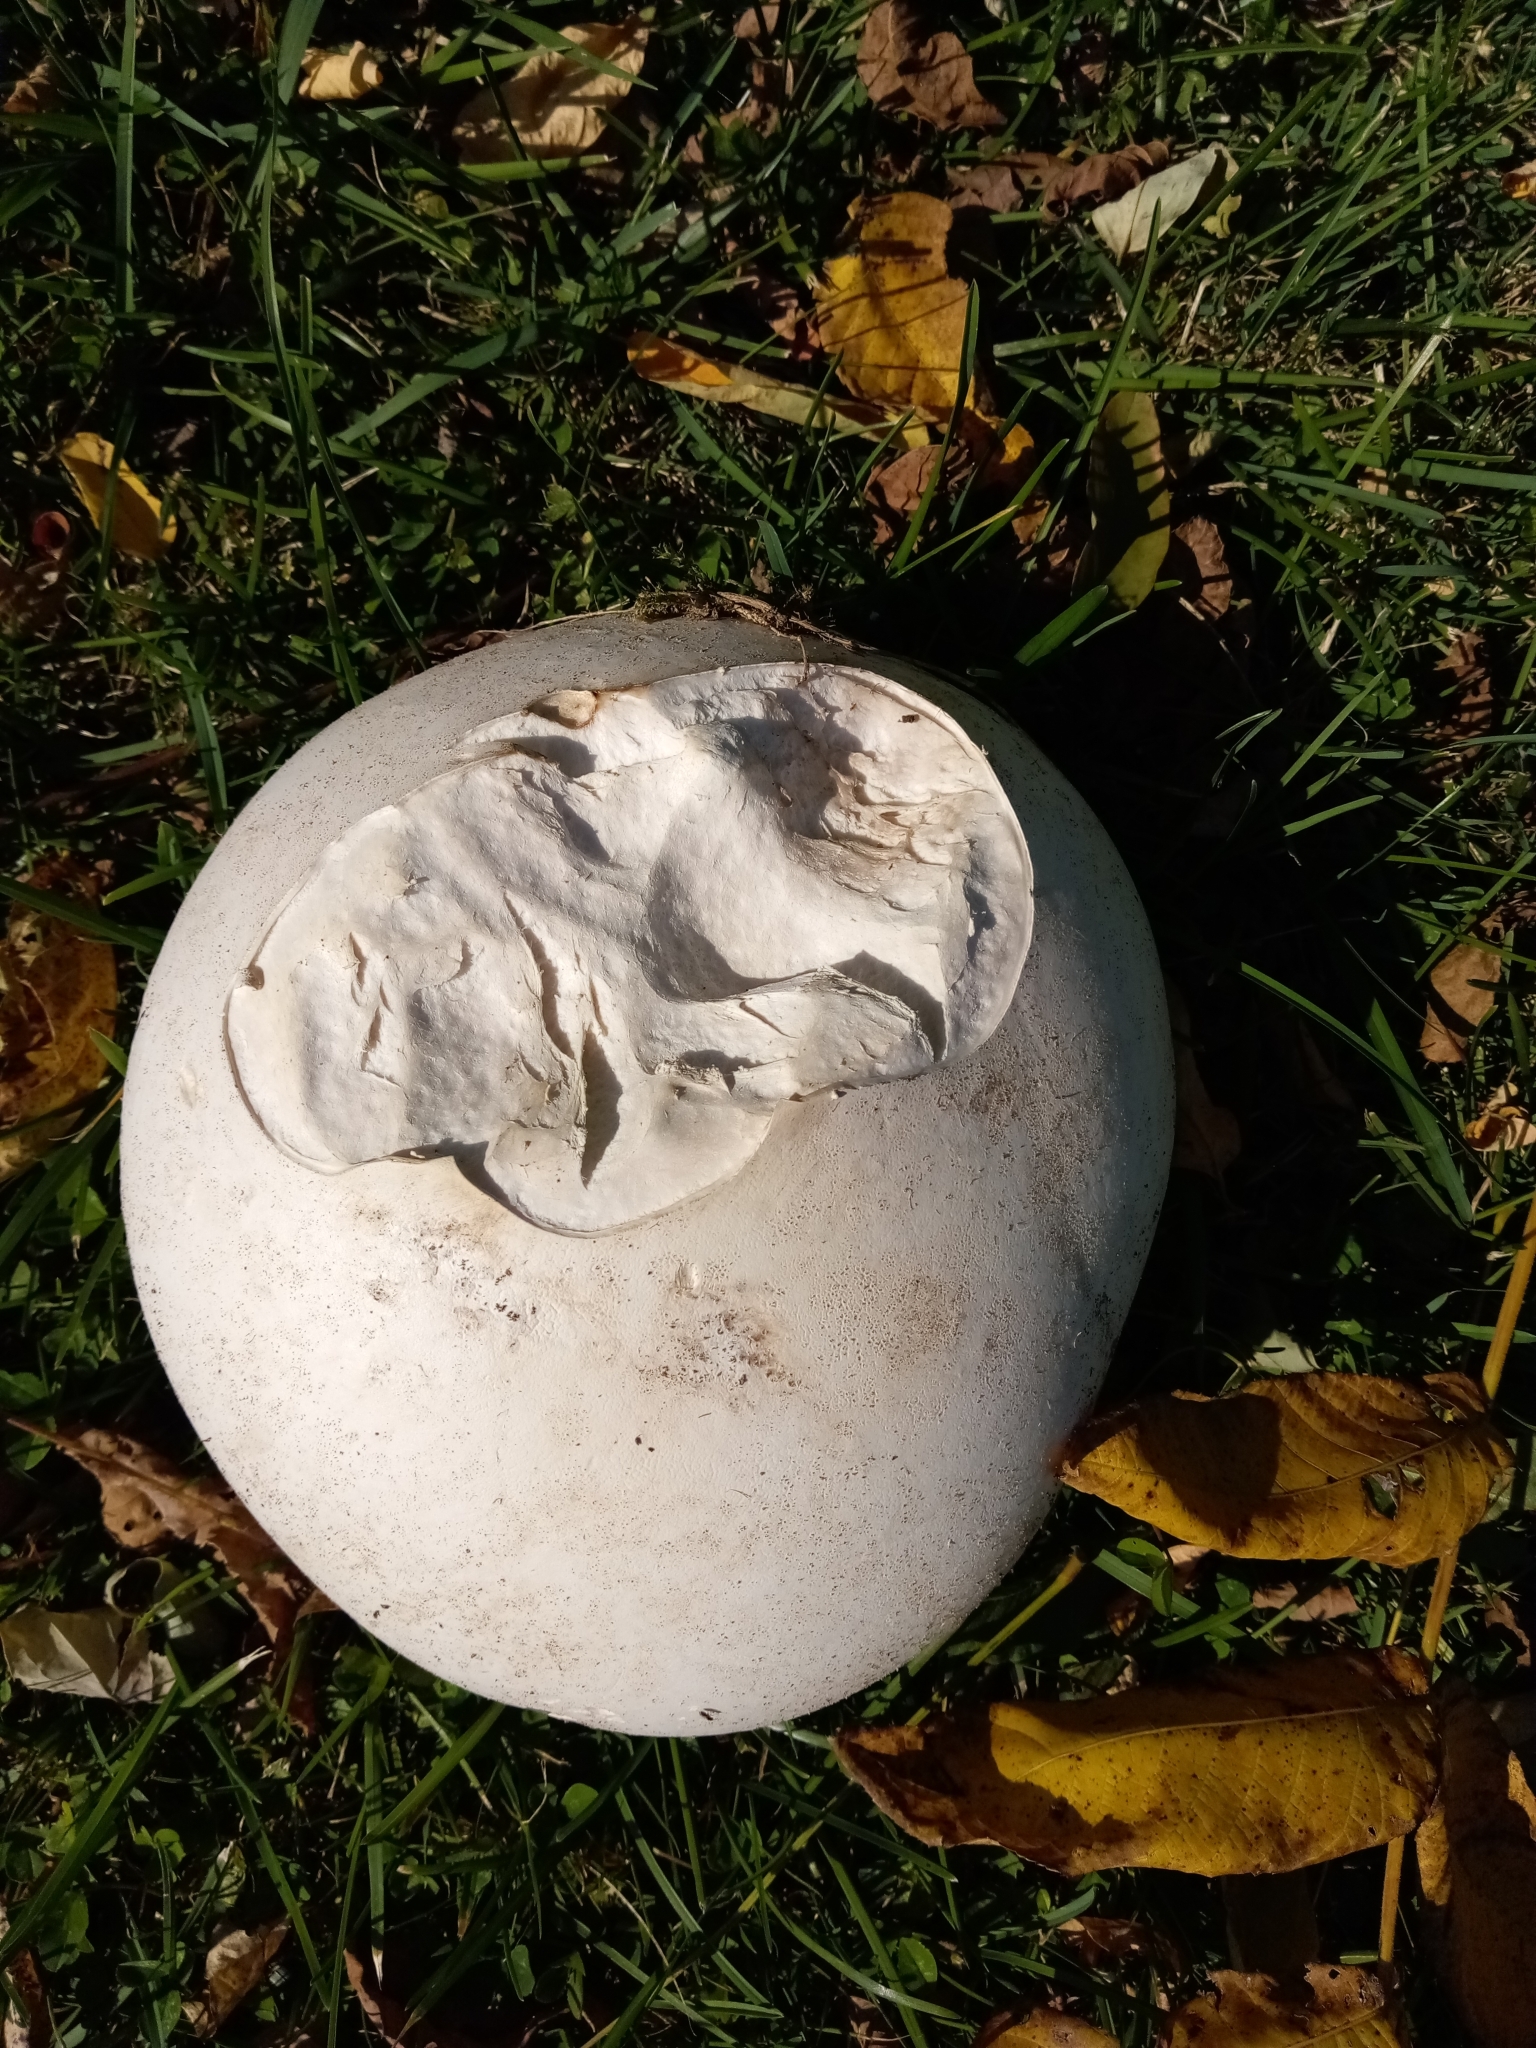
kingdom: Fungi
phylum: Basidiomycota
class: Agaricomycetes
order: Agaricales
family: Lycoperdaceae
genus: Calvatia
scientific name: Calvatia gigantea
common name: Giant puffball
